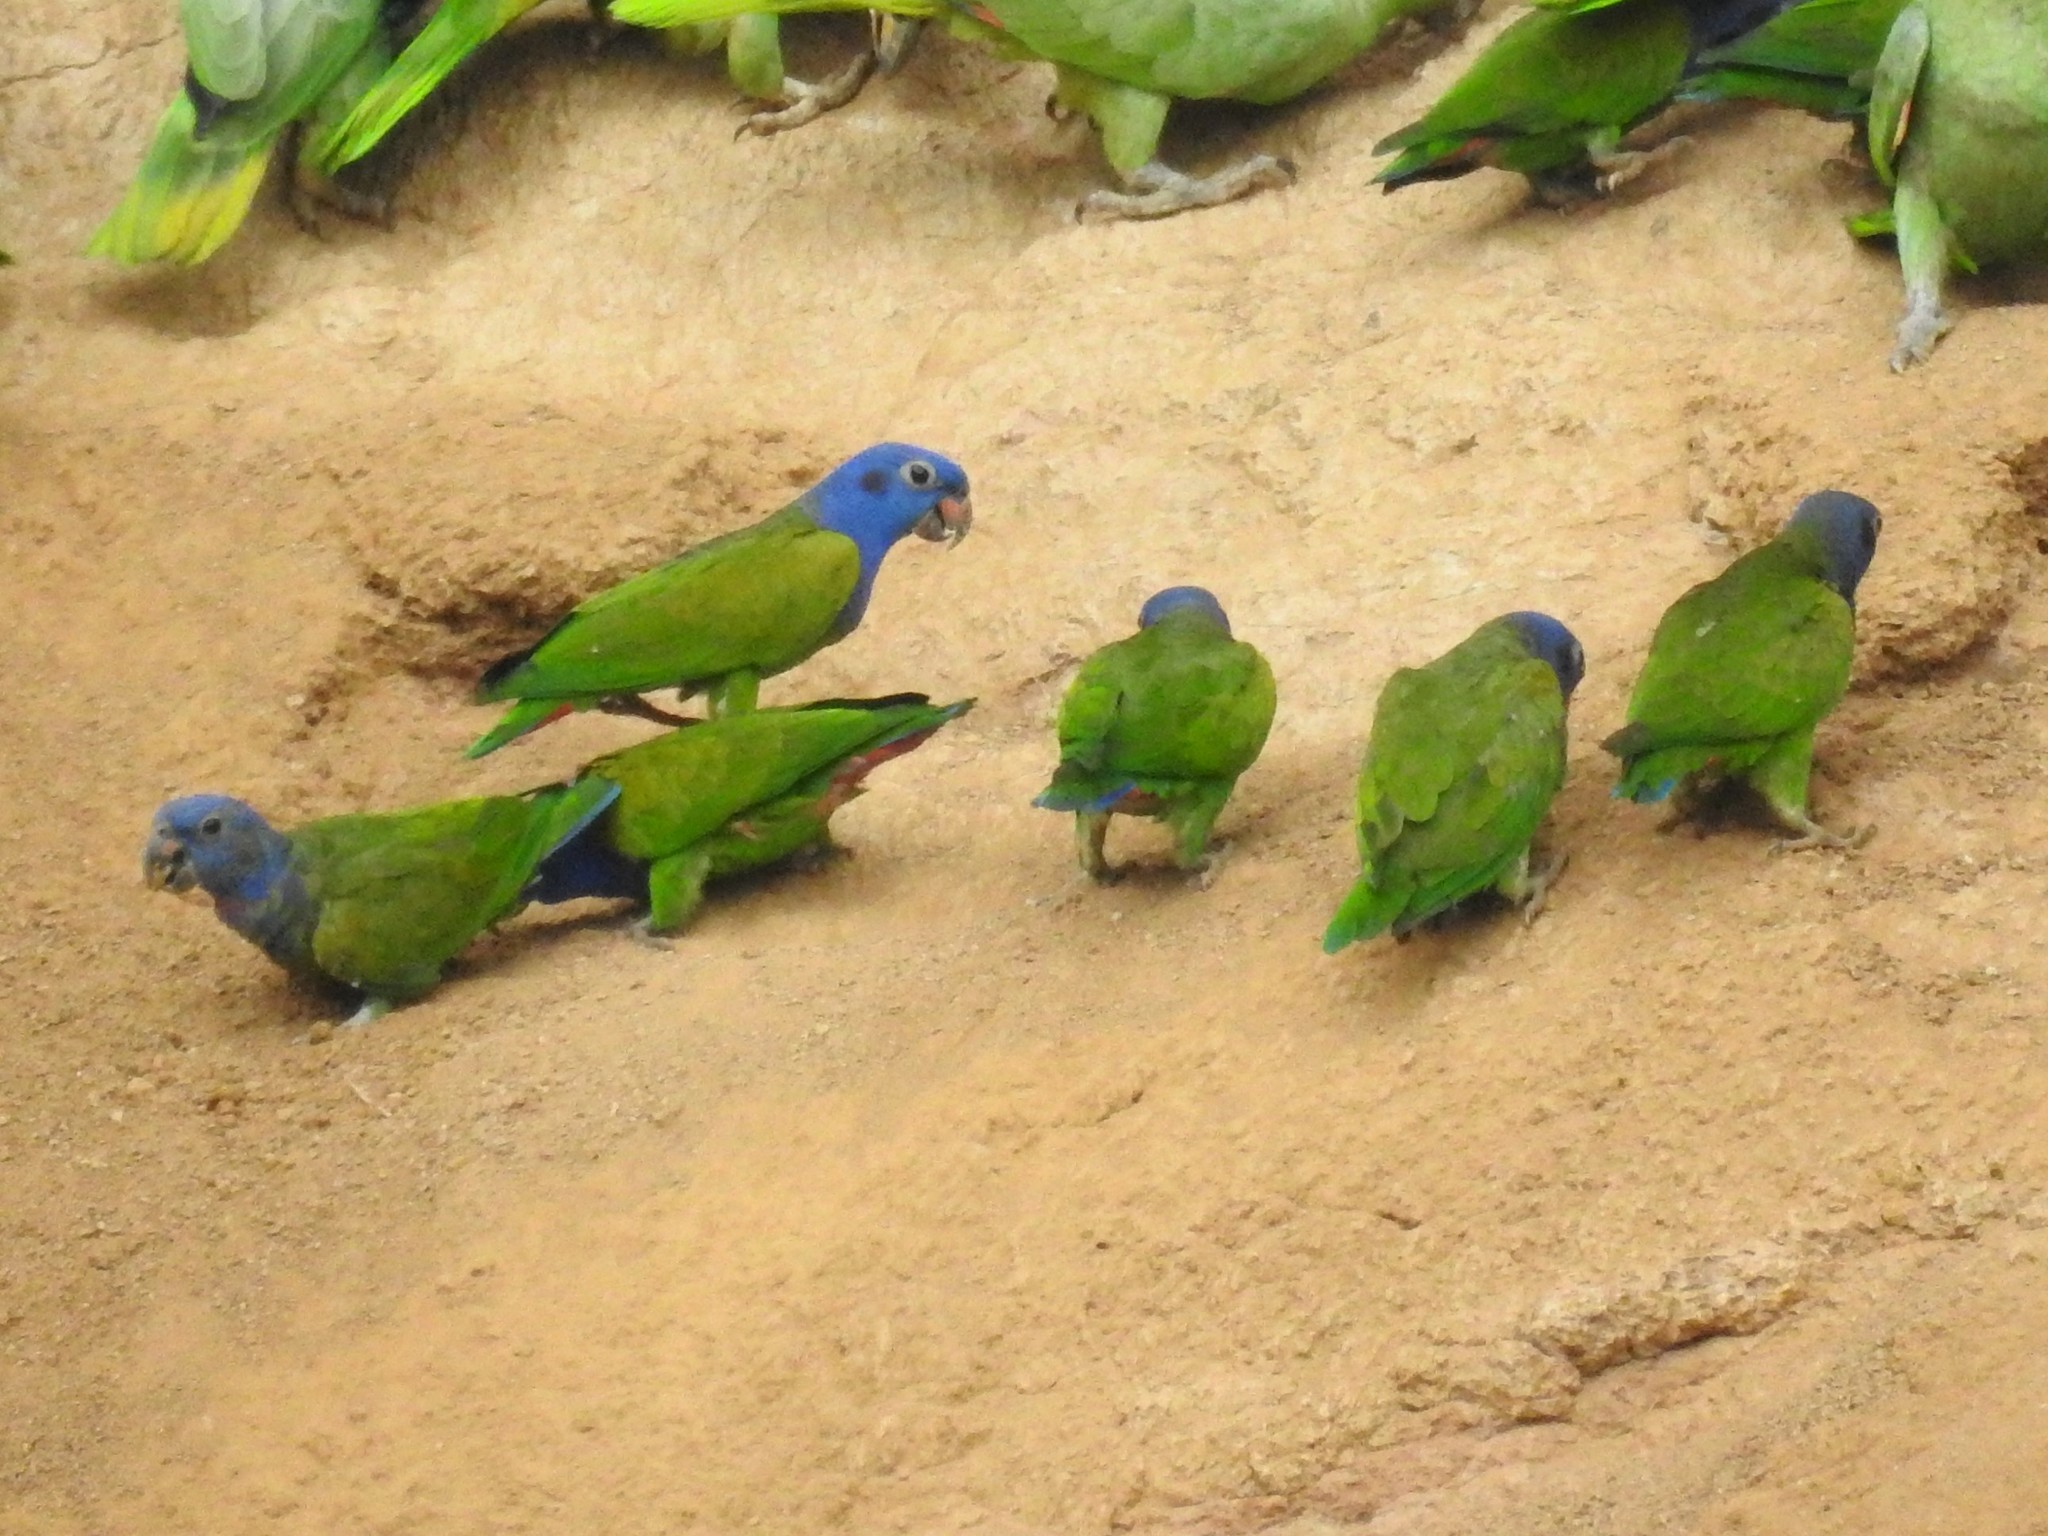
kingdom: Animalia
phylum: Chordata
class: Aves
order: Psittaciformes
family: Psittacidae
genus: Pionus
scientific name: Pionus menstruus
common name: Blue-headed parrot
